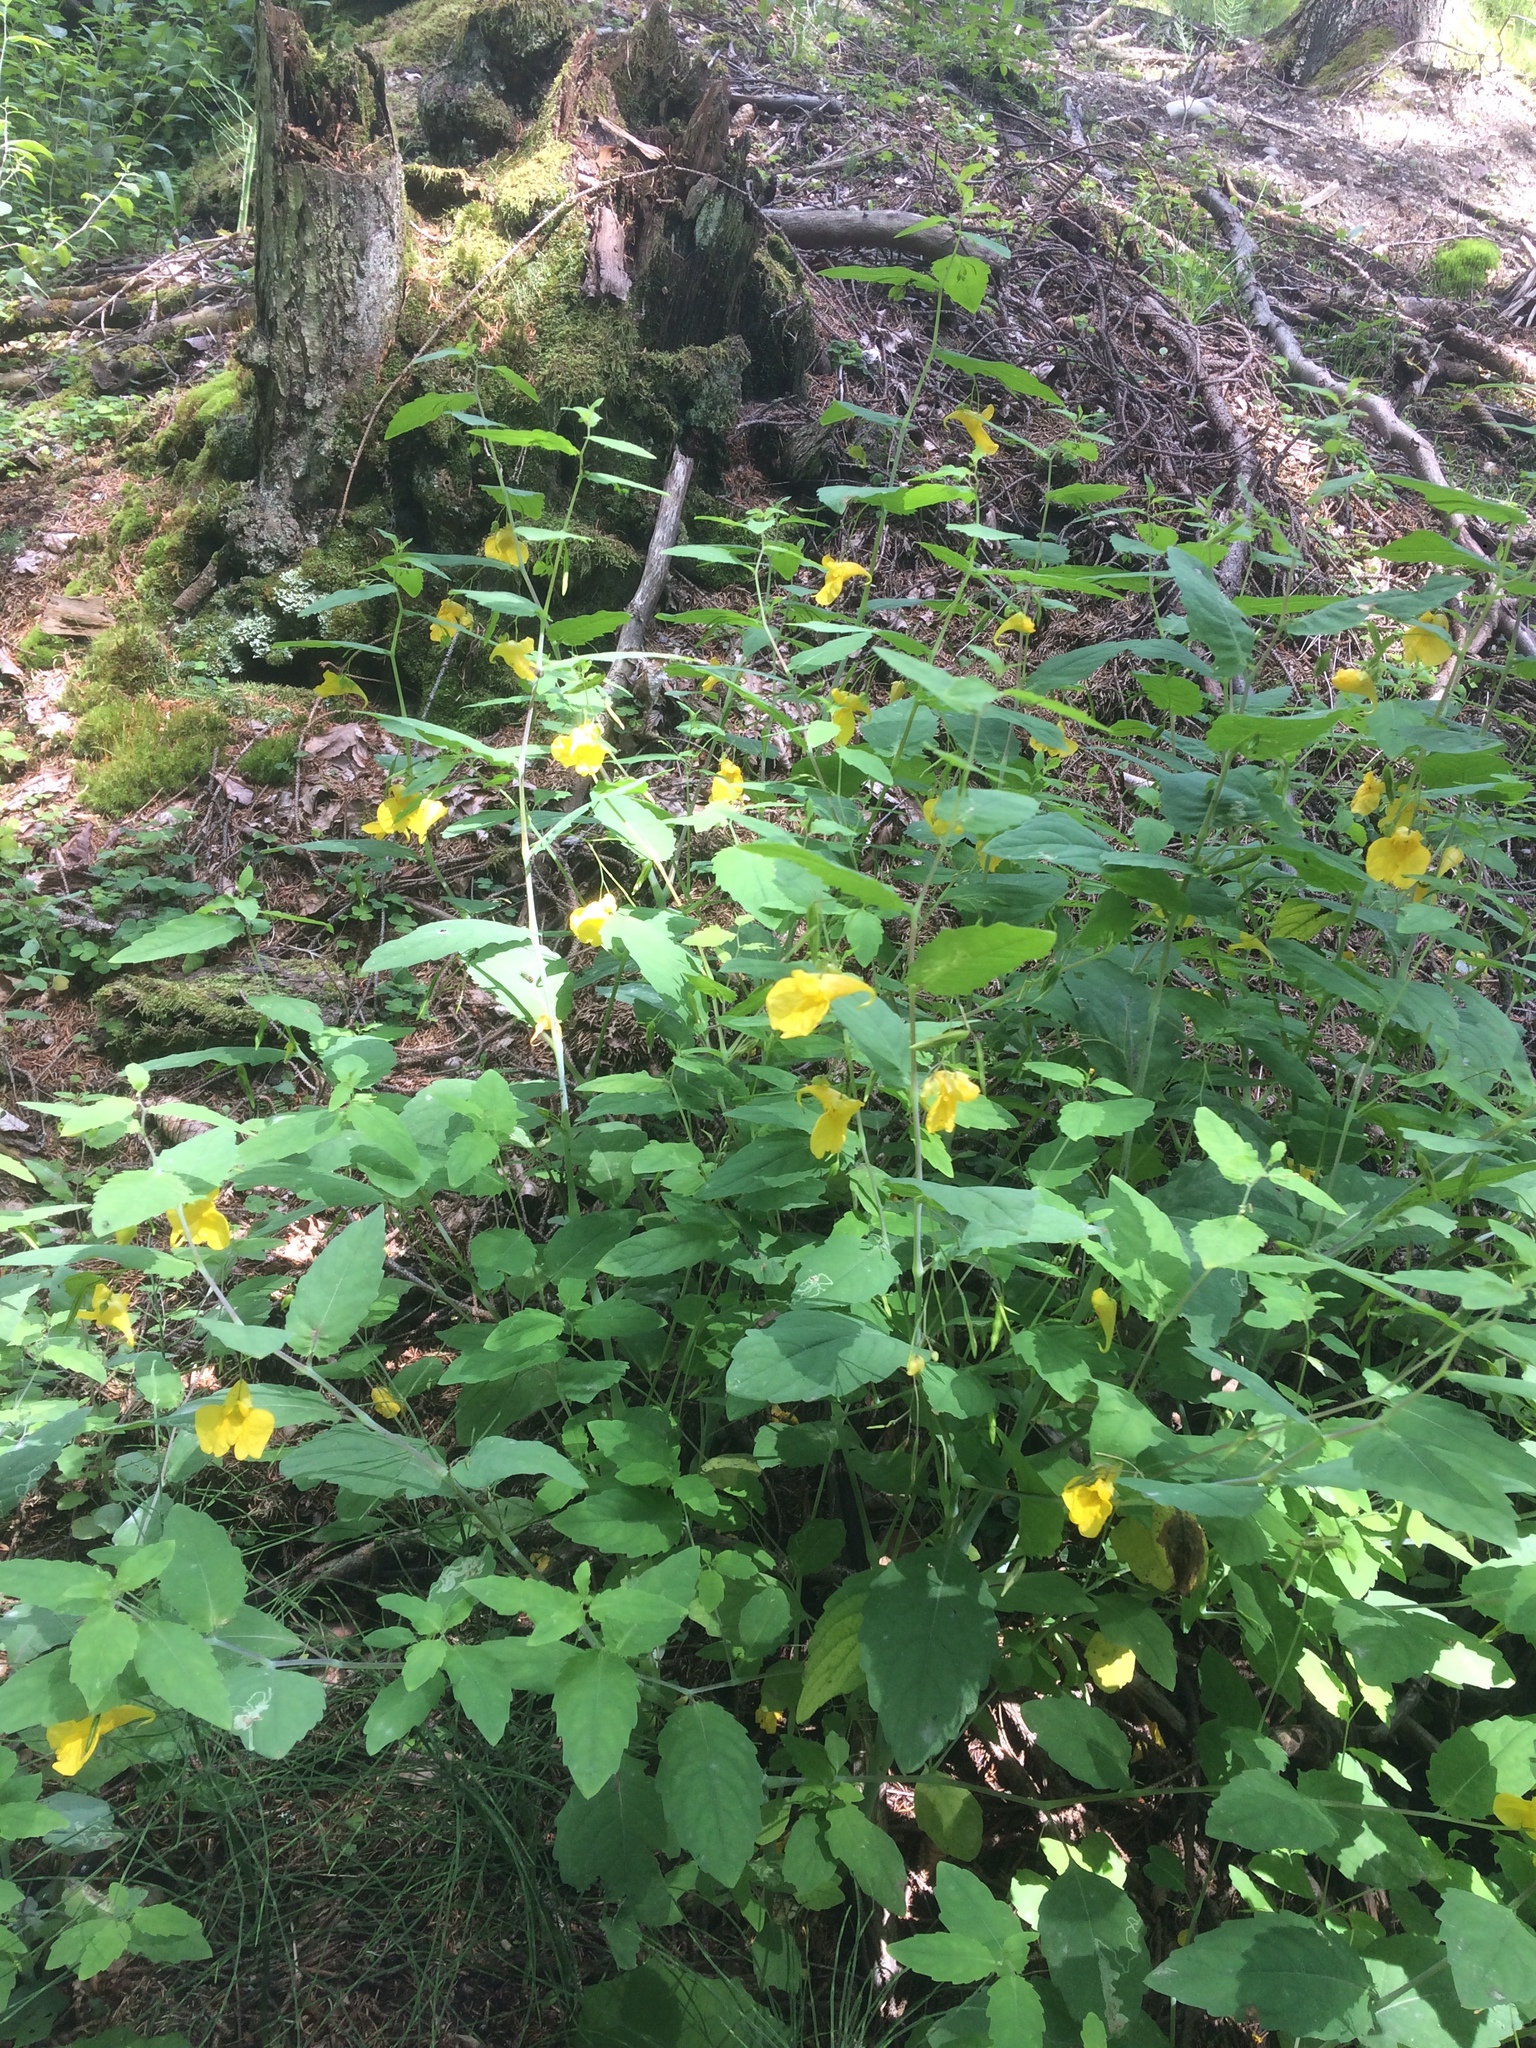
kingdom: Plantae
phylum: Tracheophyta
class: Magnoliopsida
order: Ericales
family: Balsaminaceae
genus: Impatiens
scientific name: Impatiens noli-tangere
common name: Touch-me-not balsam
